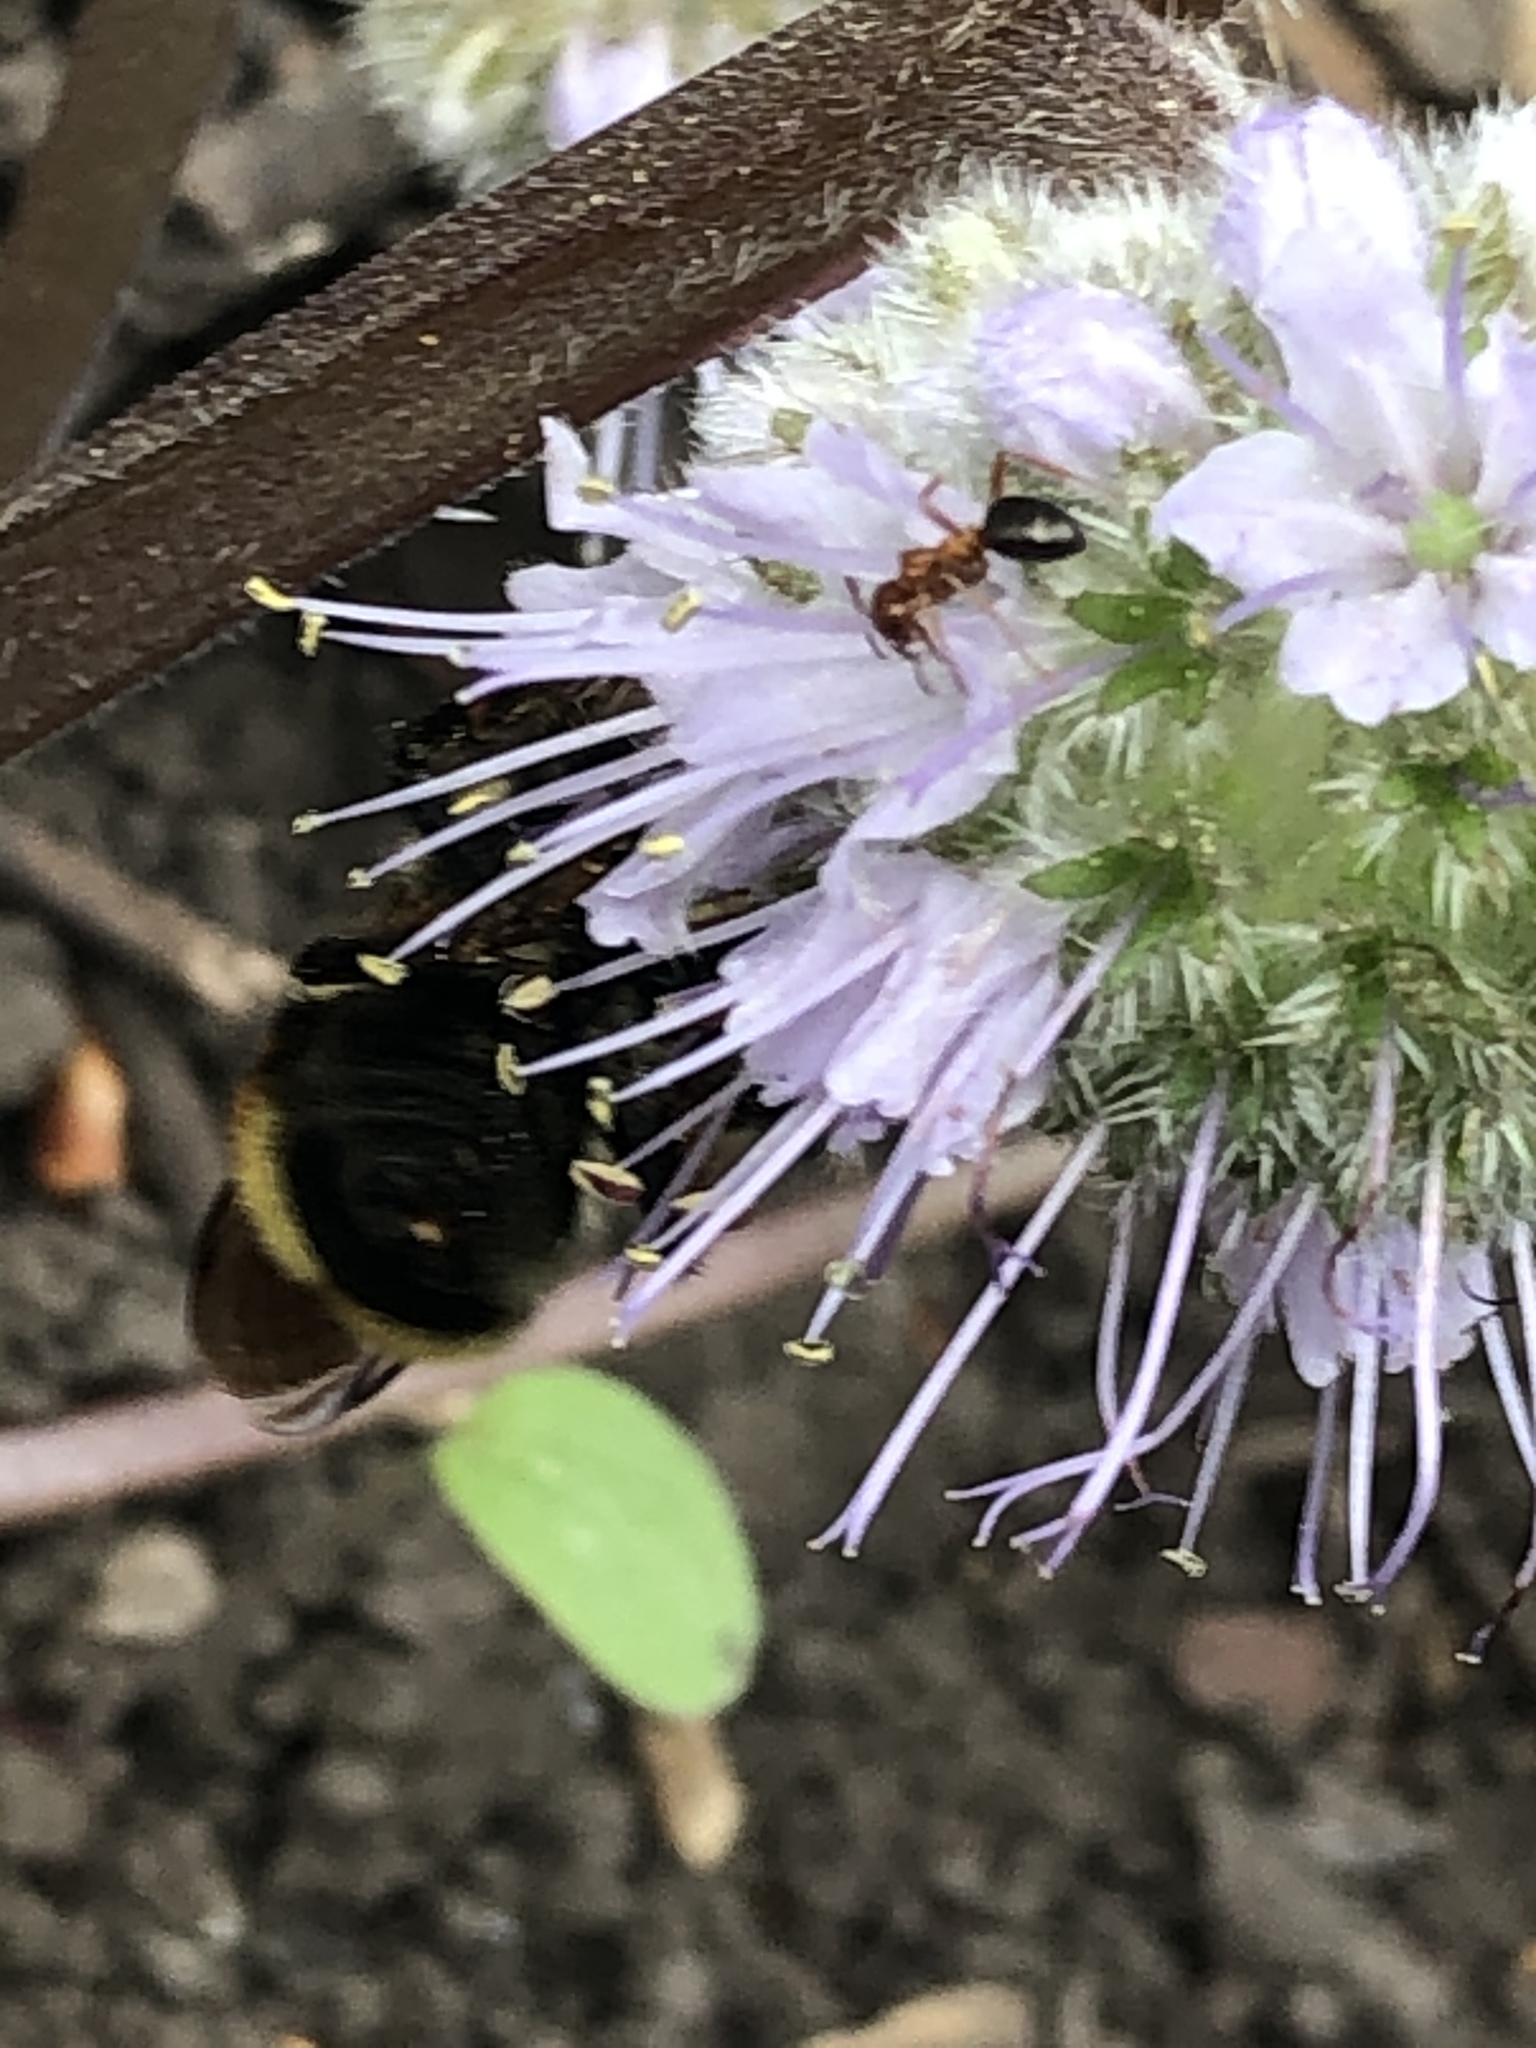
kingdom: Animalia
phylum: Arthropoda
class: Insecta
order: Hymenoptera
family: Apidae
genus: Bombus
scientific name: Bombus
